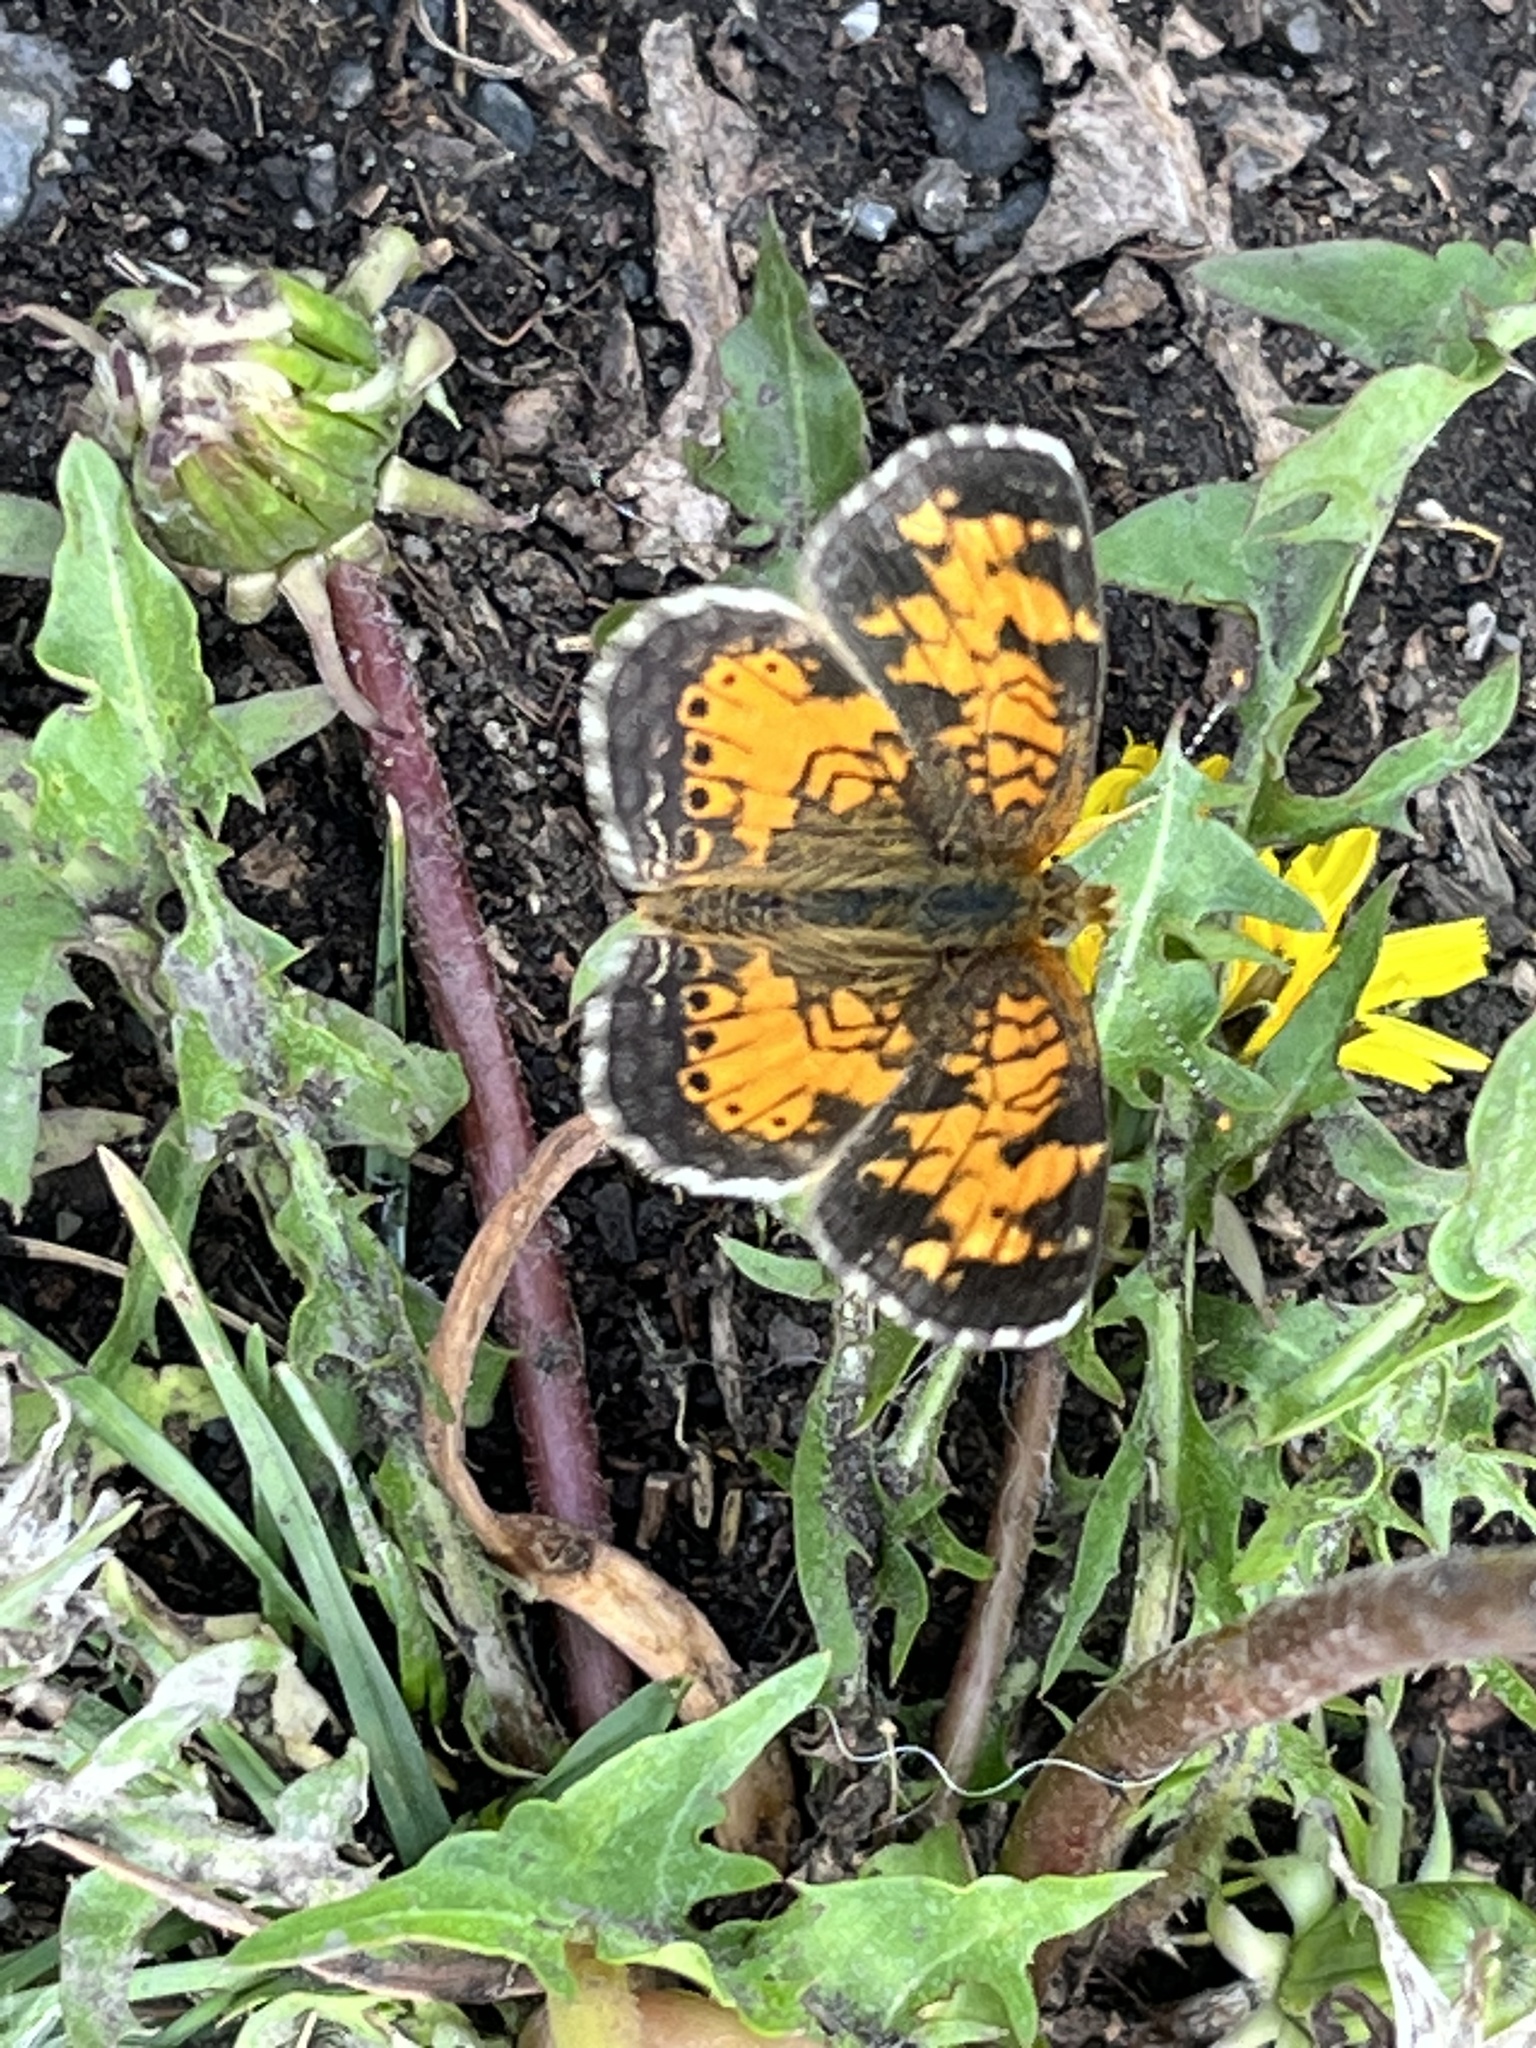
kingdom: Animalia
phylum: Arthropoda
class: Insecta
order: Lepidoptera
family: Nymphalidae
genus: Phyciodes
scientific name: Phyciodes tharos
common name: Pearl crescent
